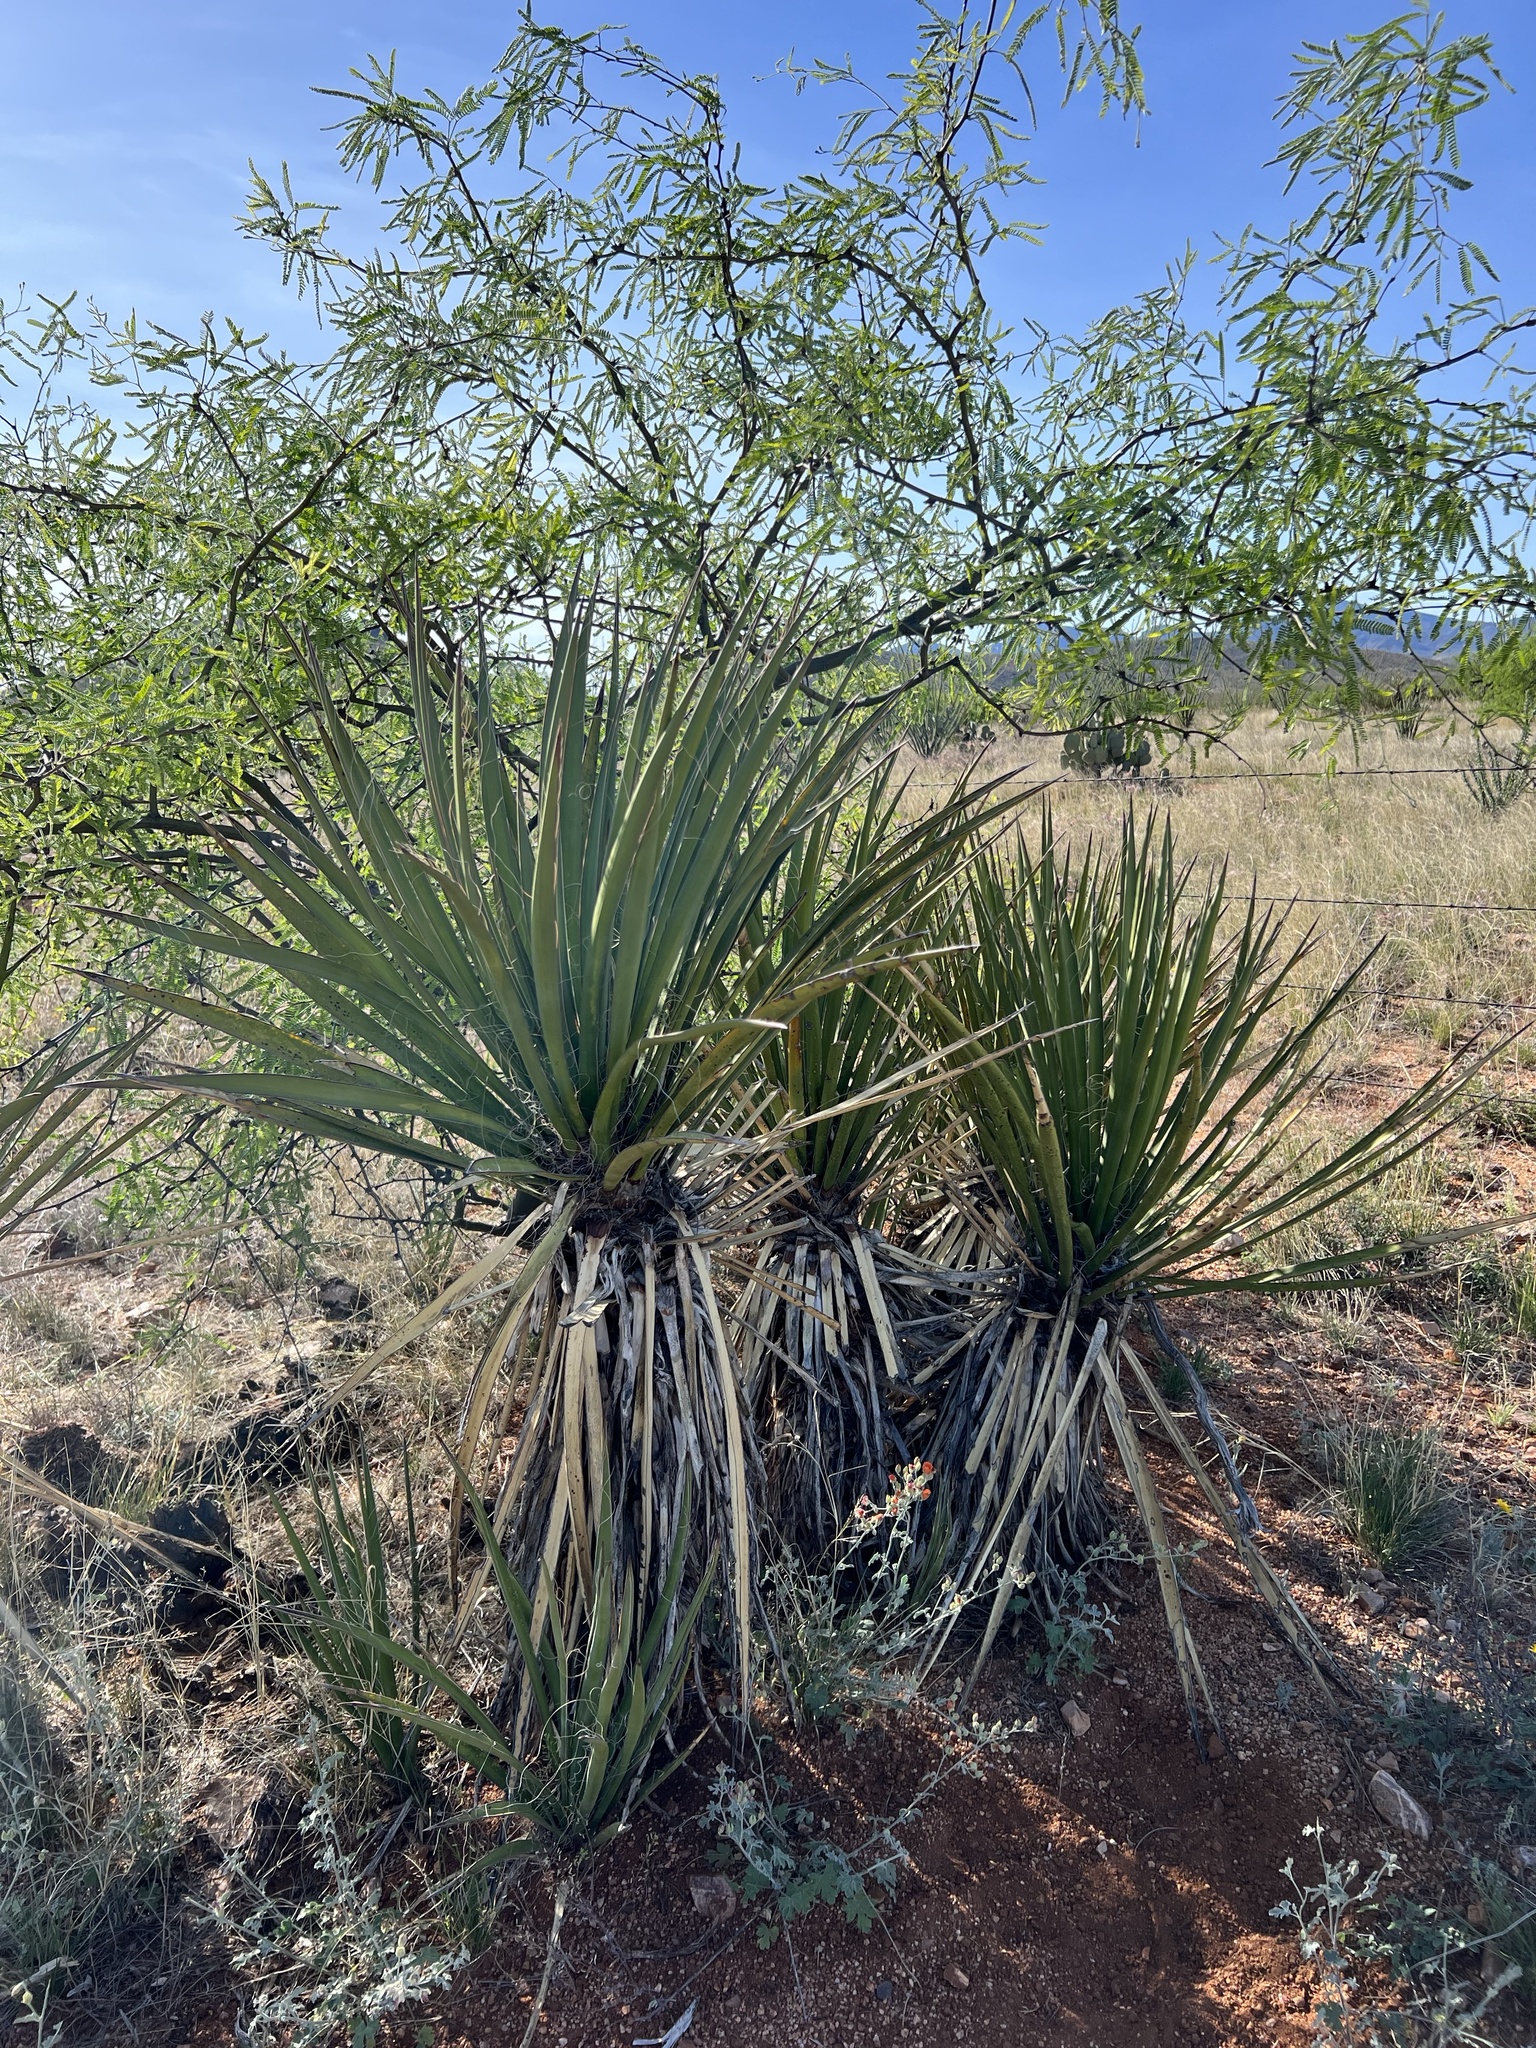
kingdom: Plantae
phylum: Tracheophyta
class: Liliopsida
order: Asparagales
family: Asparagaceae
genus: Yucca
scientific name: Yucca baccata
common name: Banana yucca
